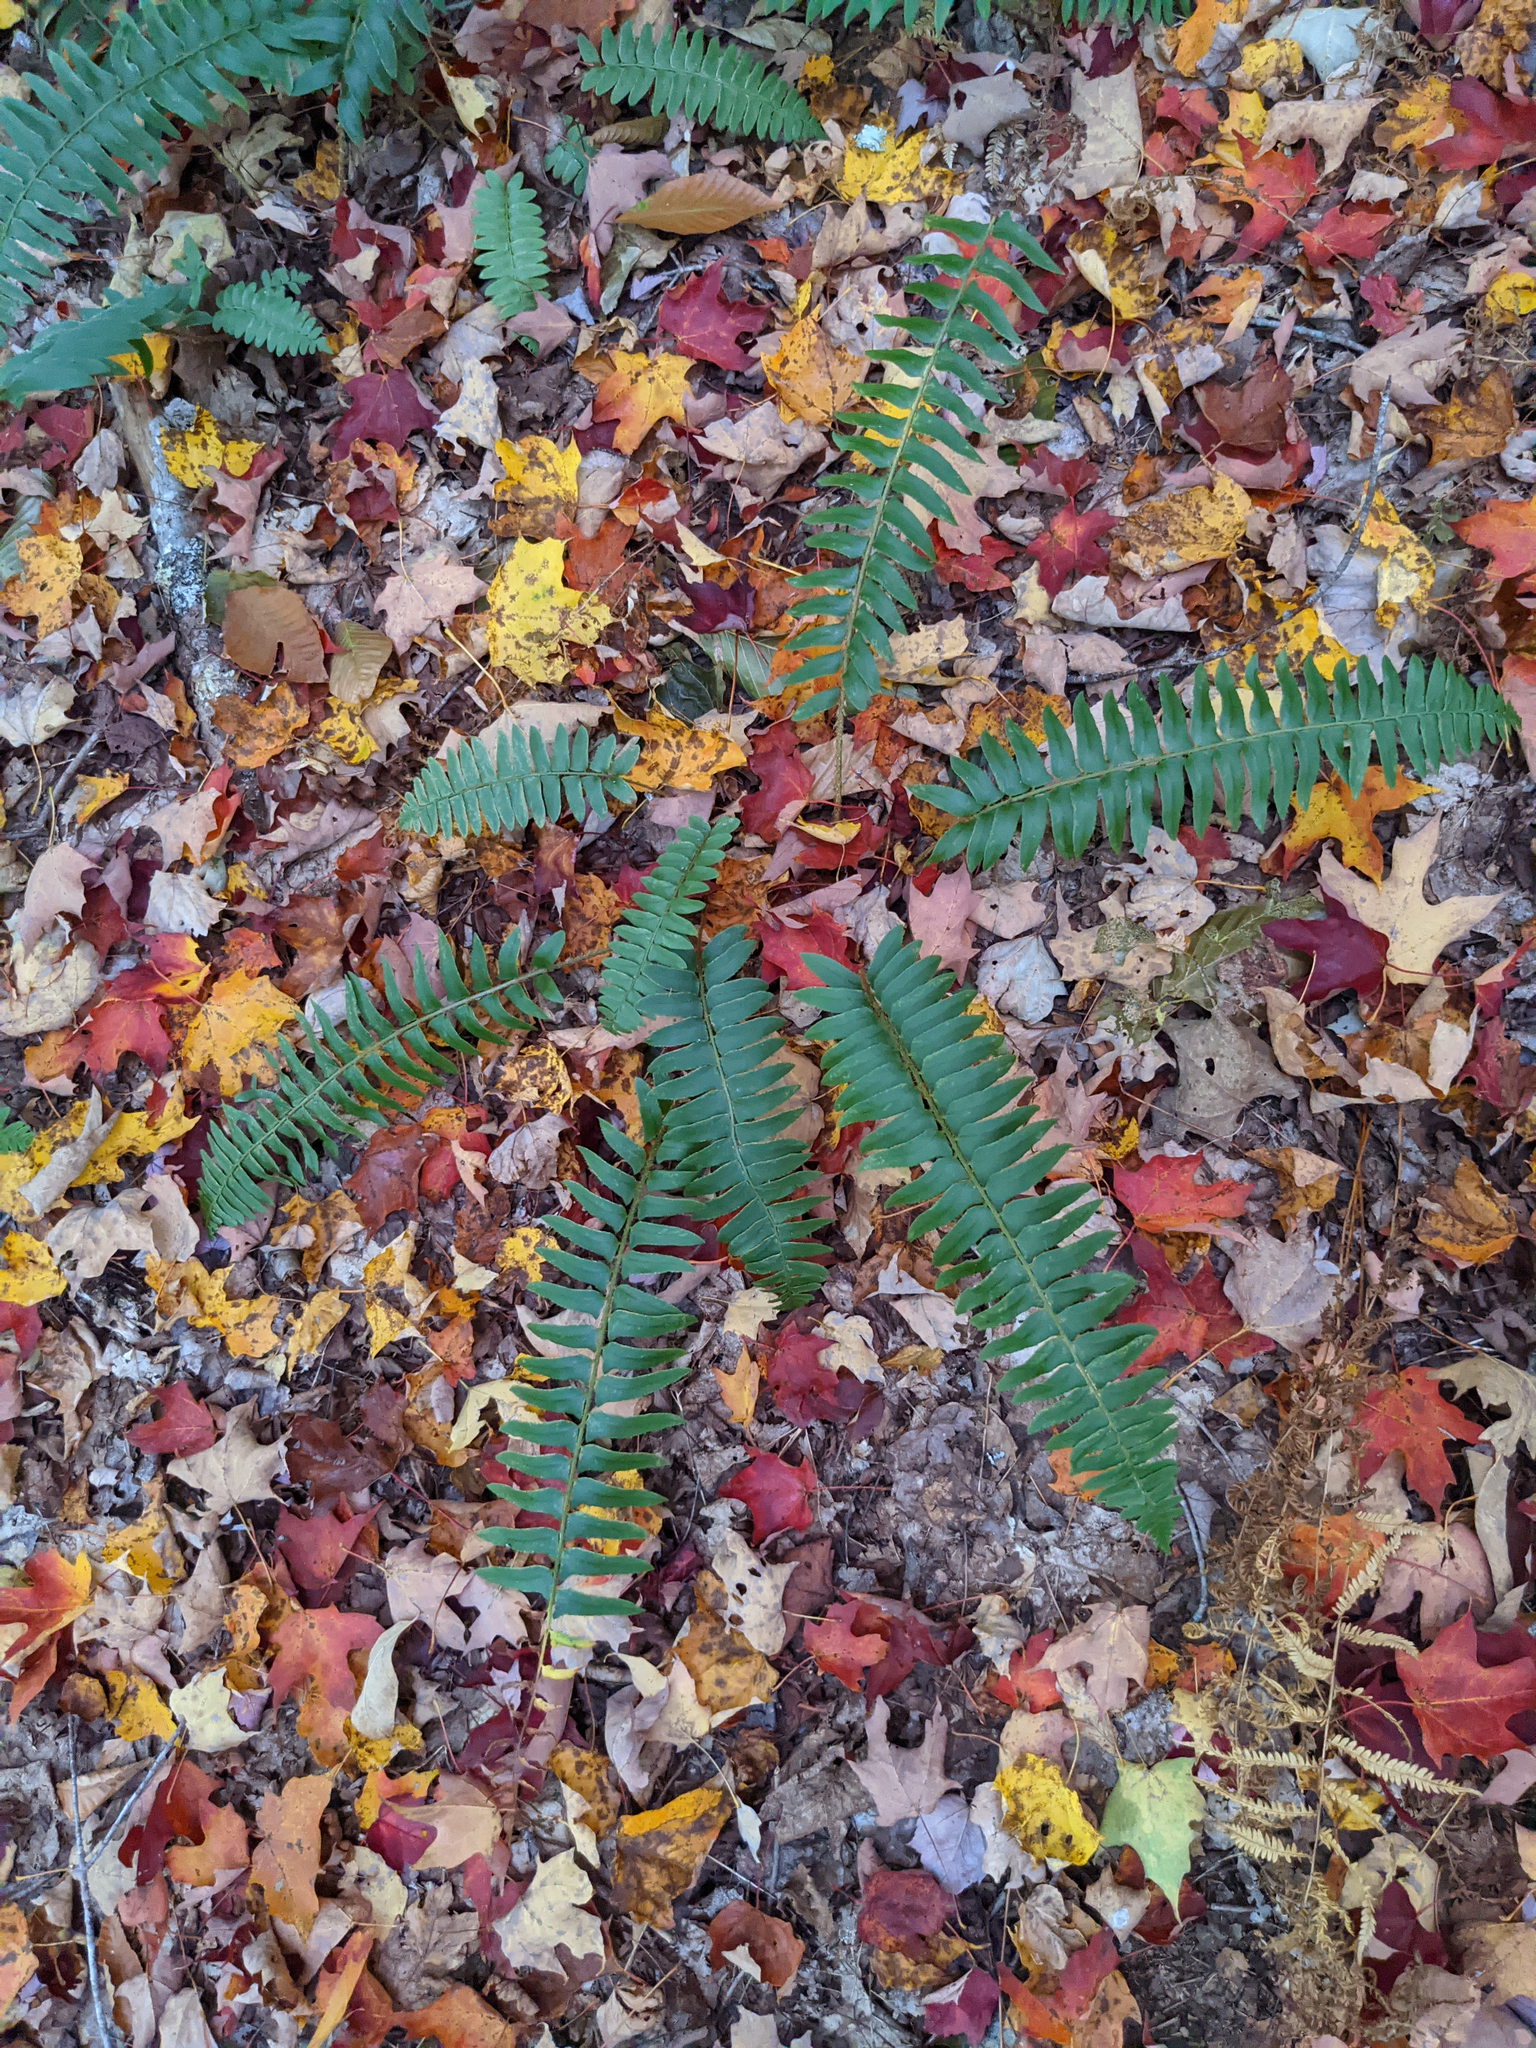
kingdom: Plantae
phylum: Tracheophyta
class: Polypodiopsida
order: Polypodiales
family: Dryopteridaceae
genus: Polystichum
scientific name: Polystichum acrostichoides
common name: Christmas fern
